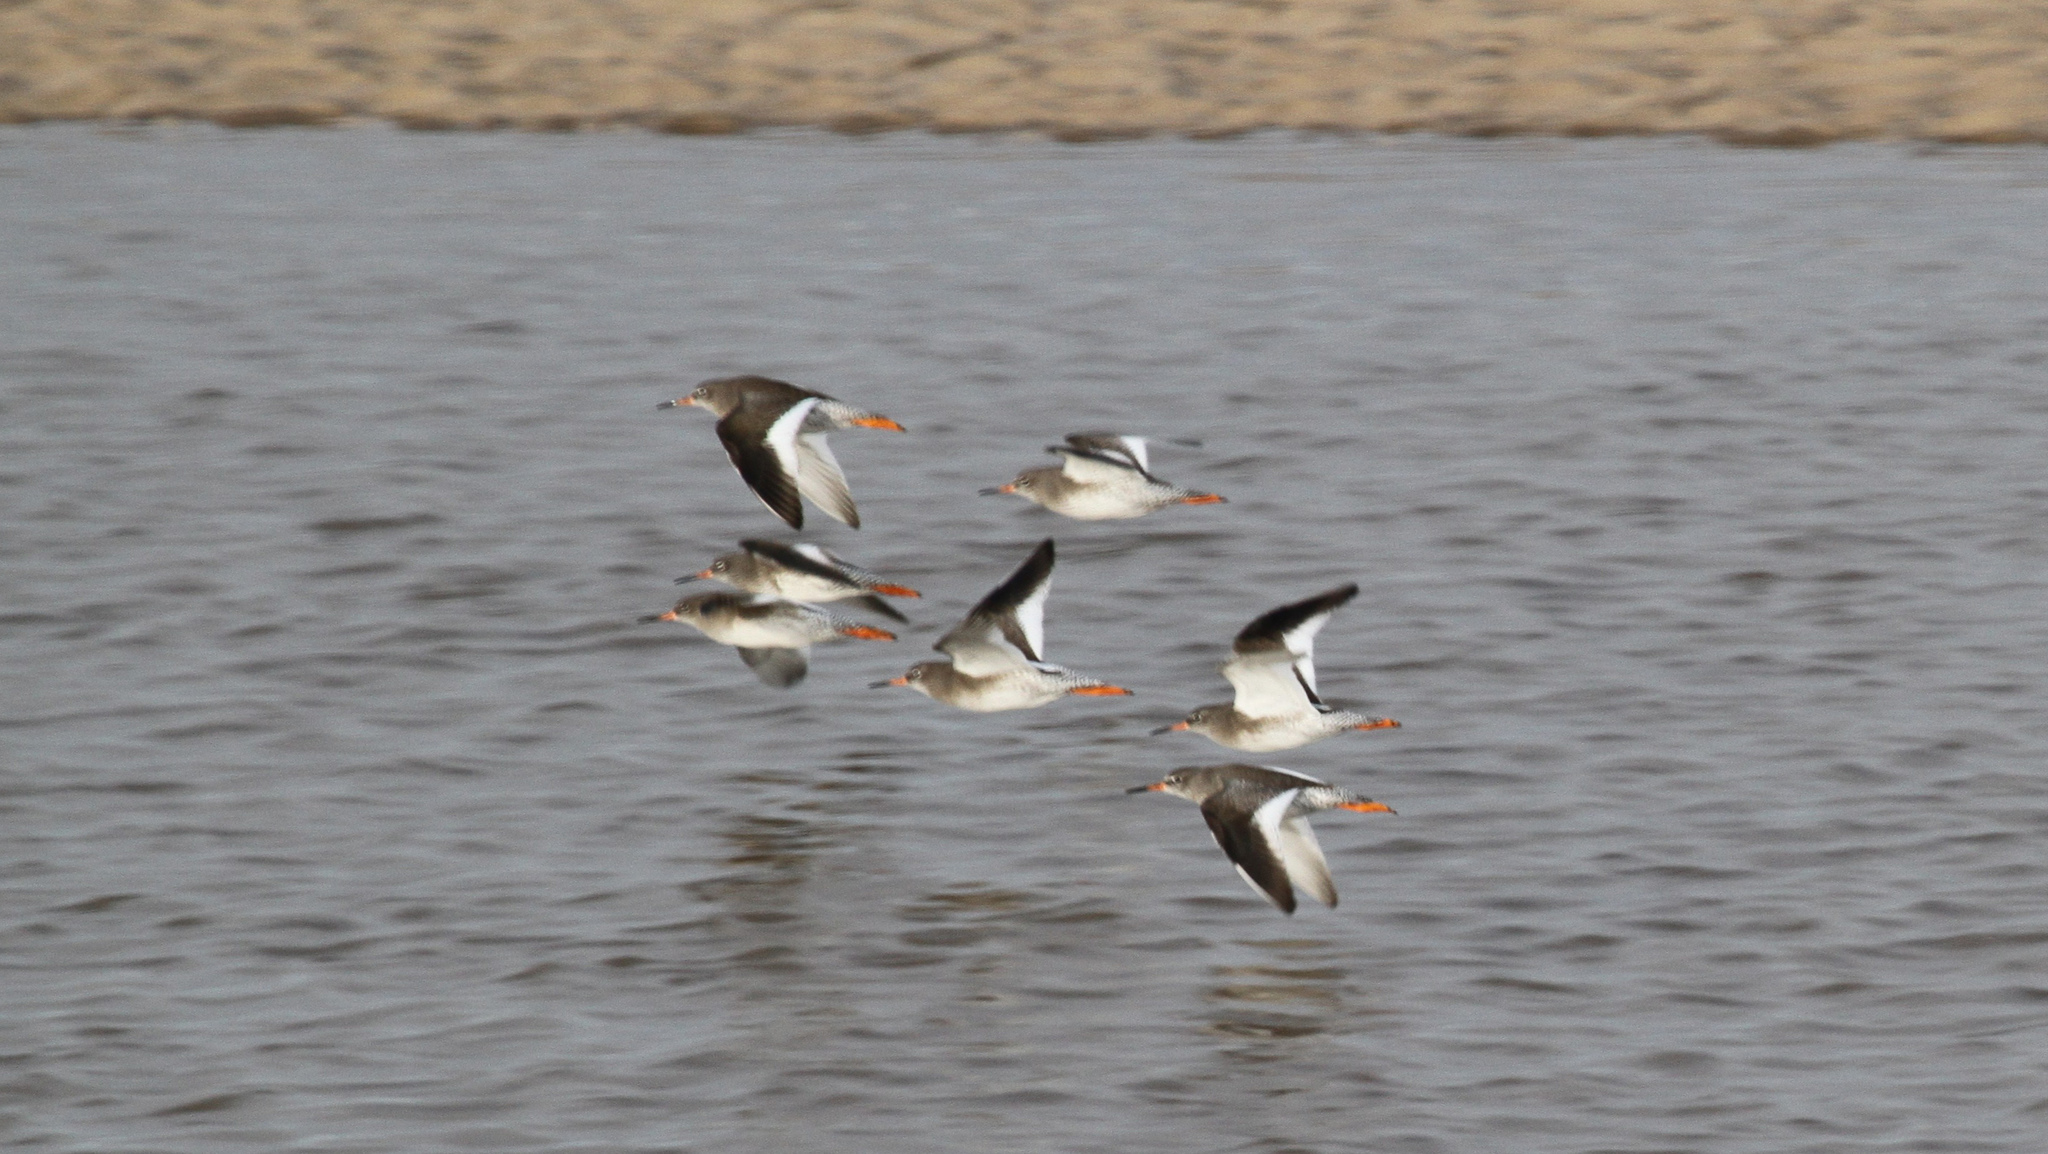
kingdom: Animalia
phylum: Chordata
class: Aves
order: Charadriiformes
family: Scolopacidae
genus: Tringa
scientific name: Tringa totanus
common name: Common redshank
